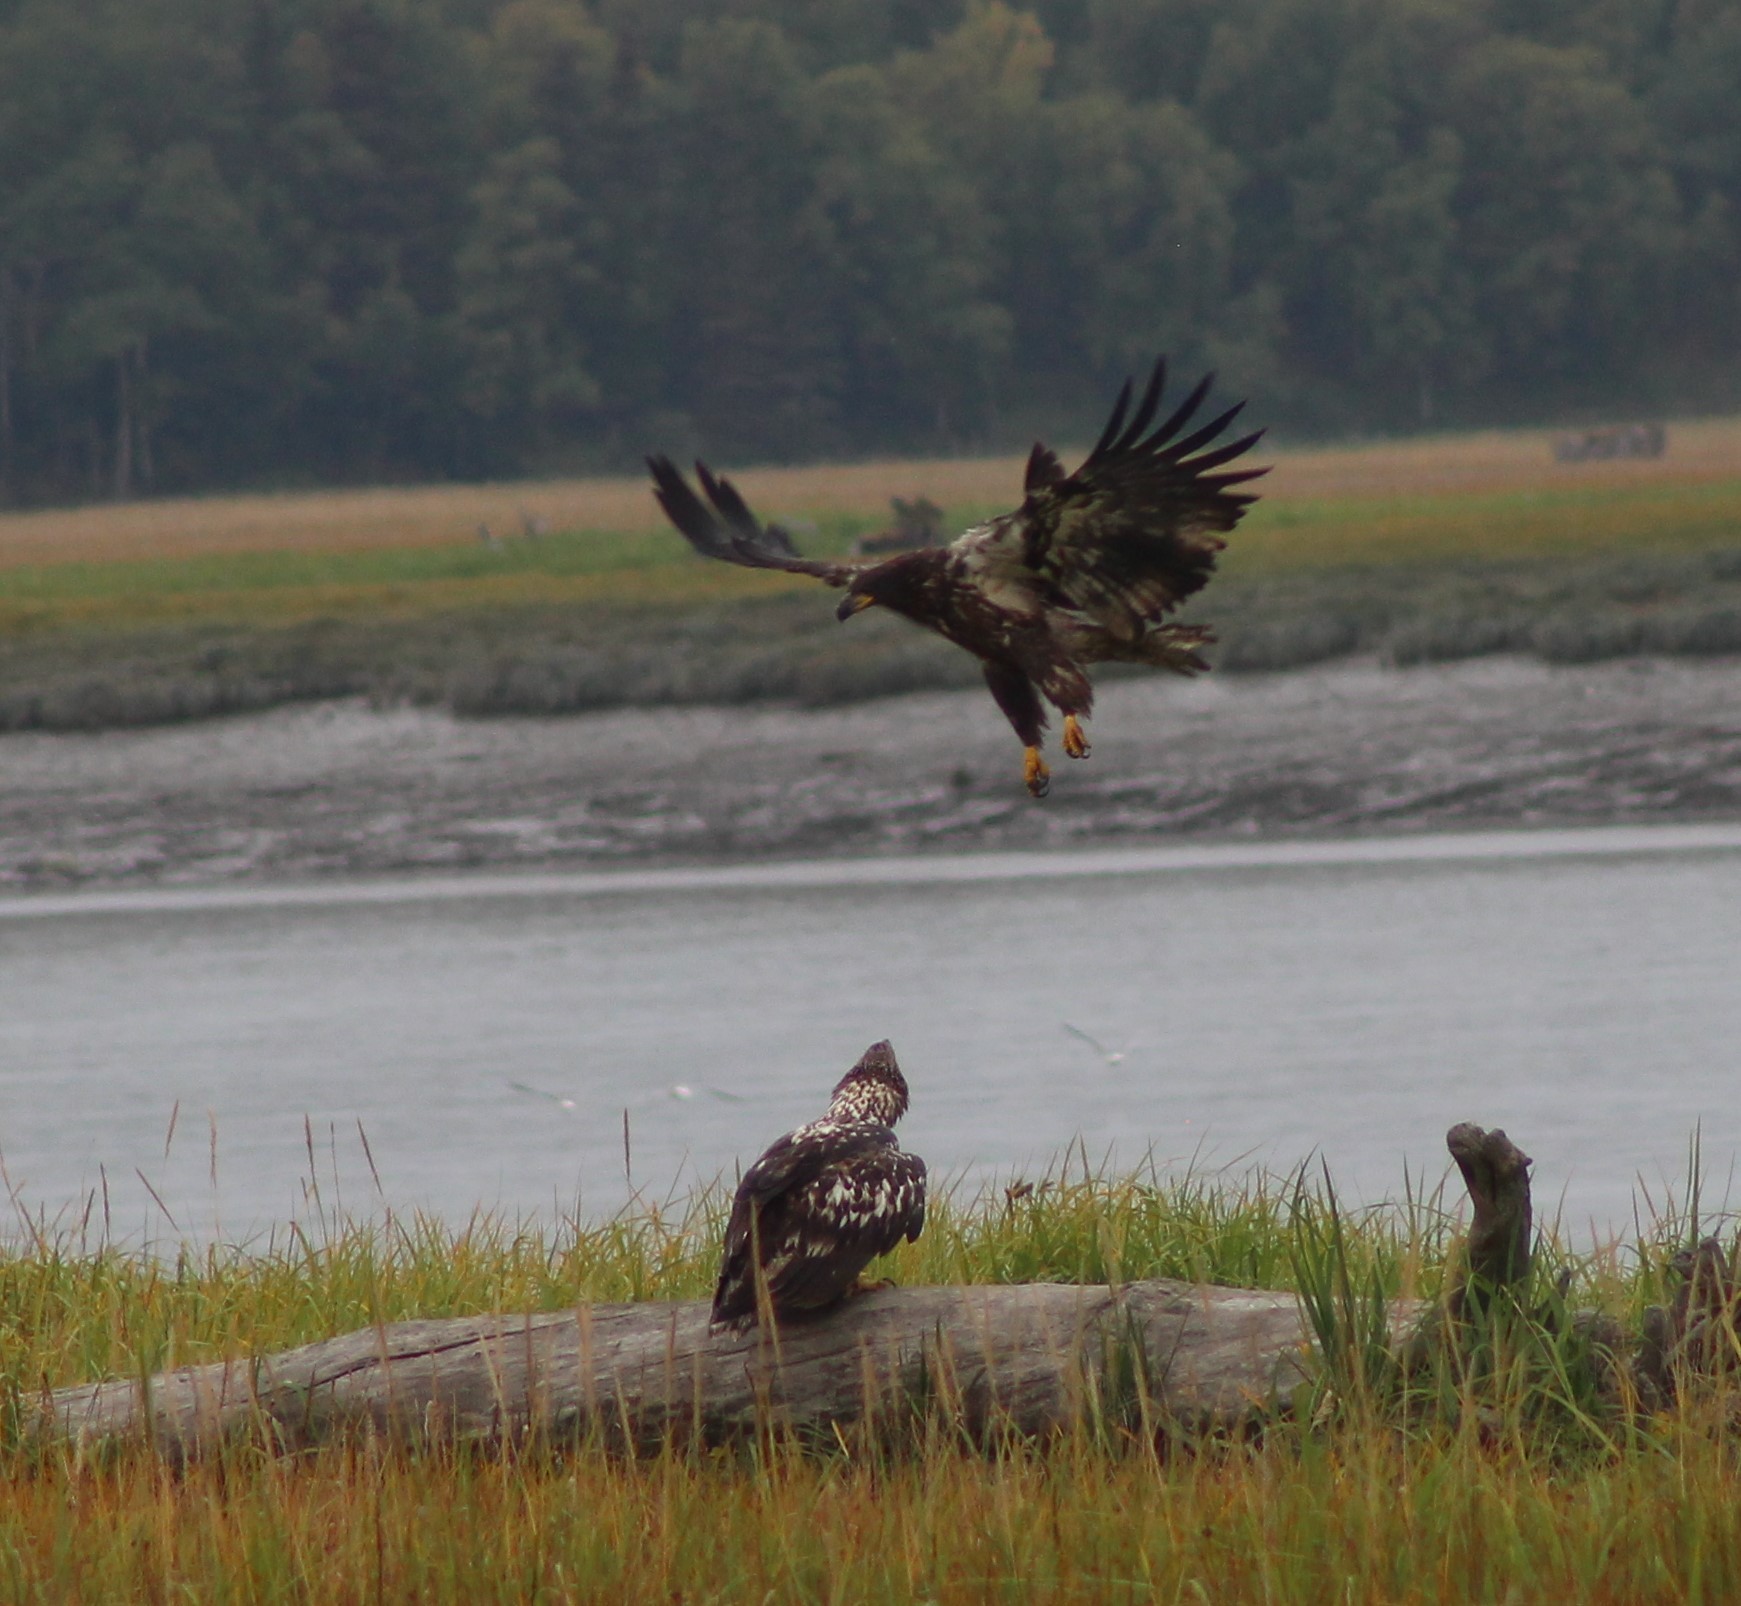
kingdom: Animalia
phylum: Chordata
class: Aves
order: Accipitriformes
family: Accipitridae
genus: Haliaeetus
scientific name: Haliaeetus leucocephalus
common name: Bald eagle
